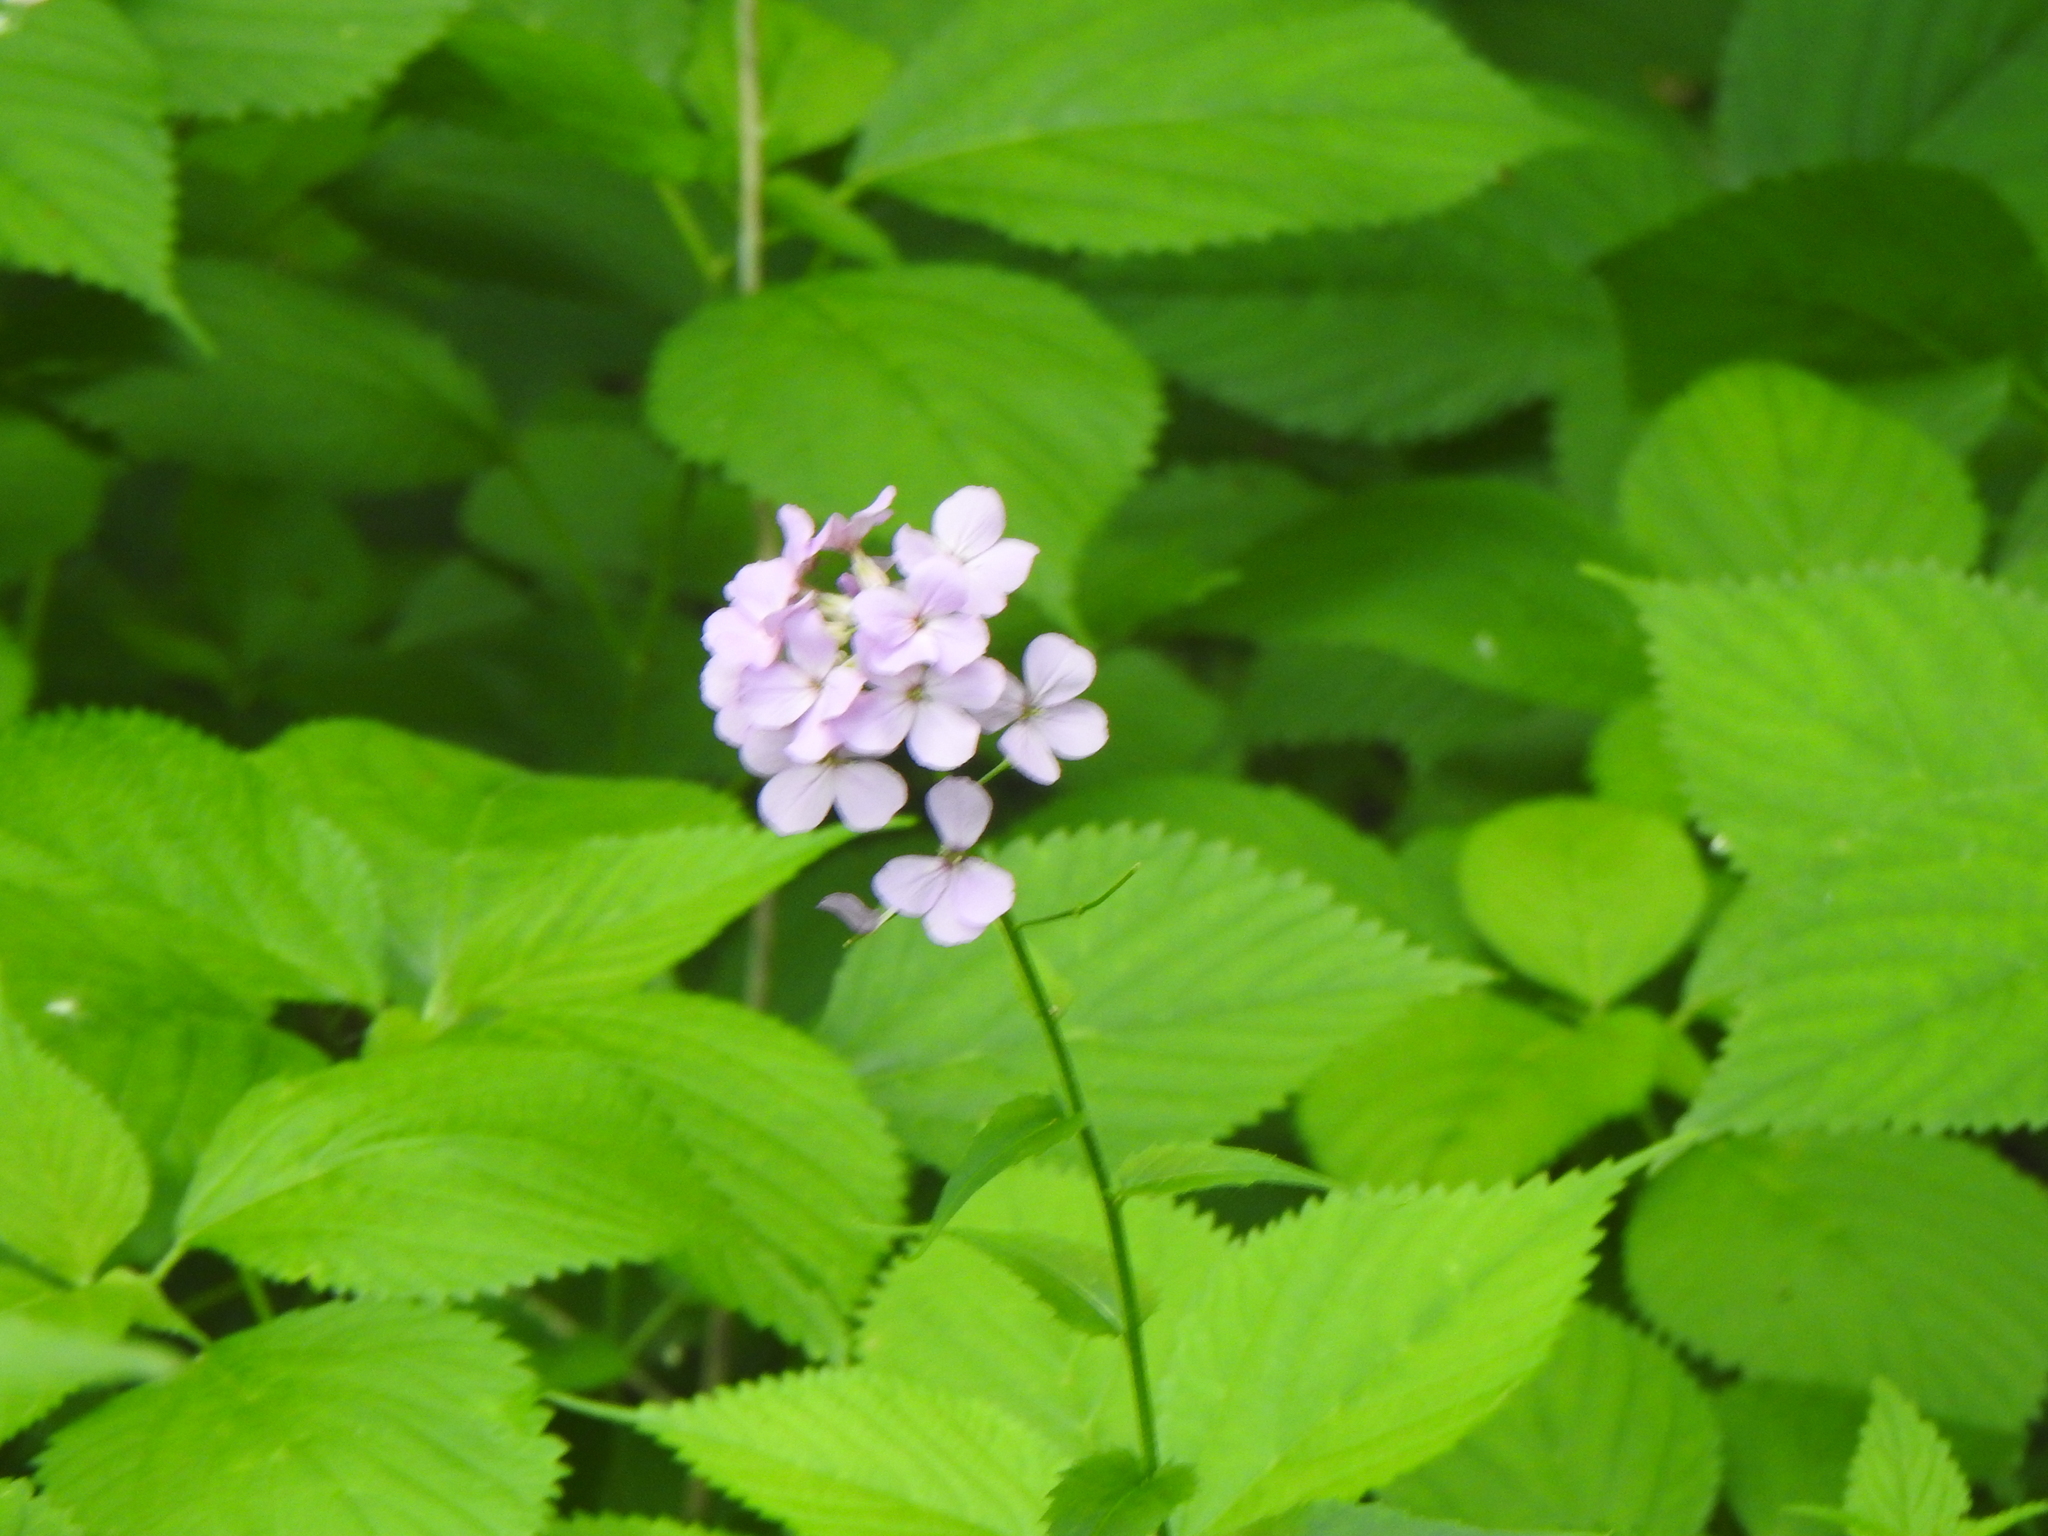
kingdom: Plantae
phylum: Tracheophyta
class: Magnoliopsida
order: Brassicales
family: Brassicaceae
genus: Hesperis
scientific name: Hesperis matronalis
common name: Dame's-violet
